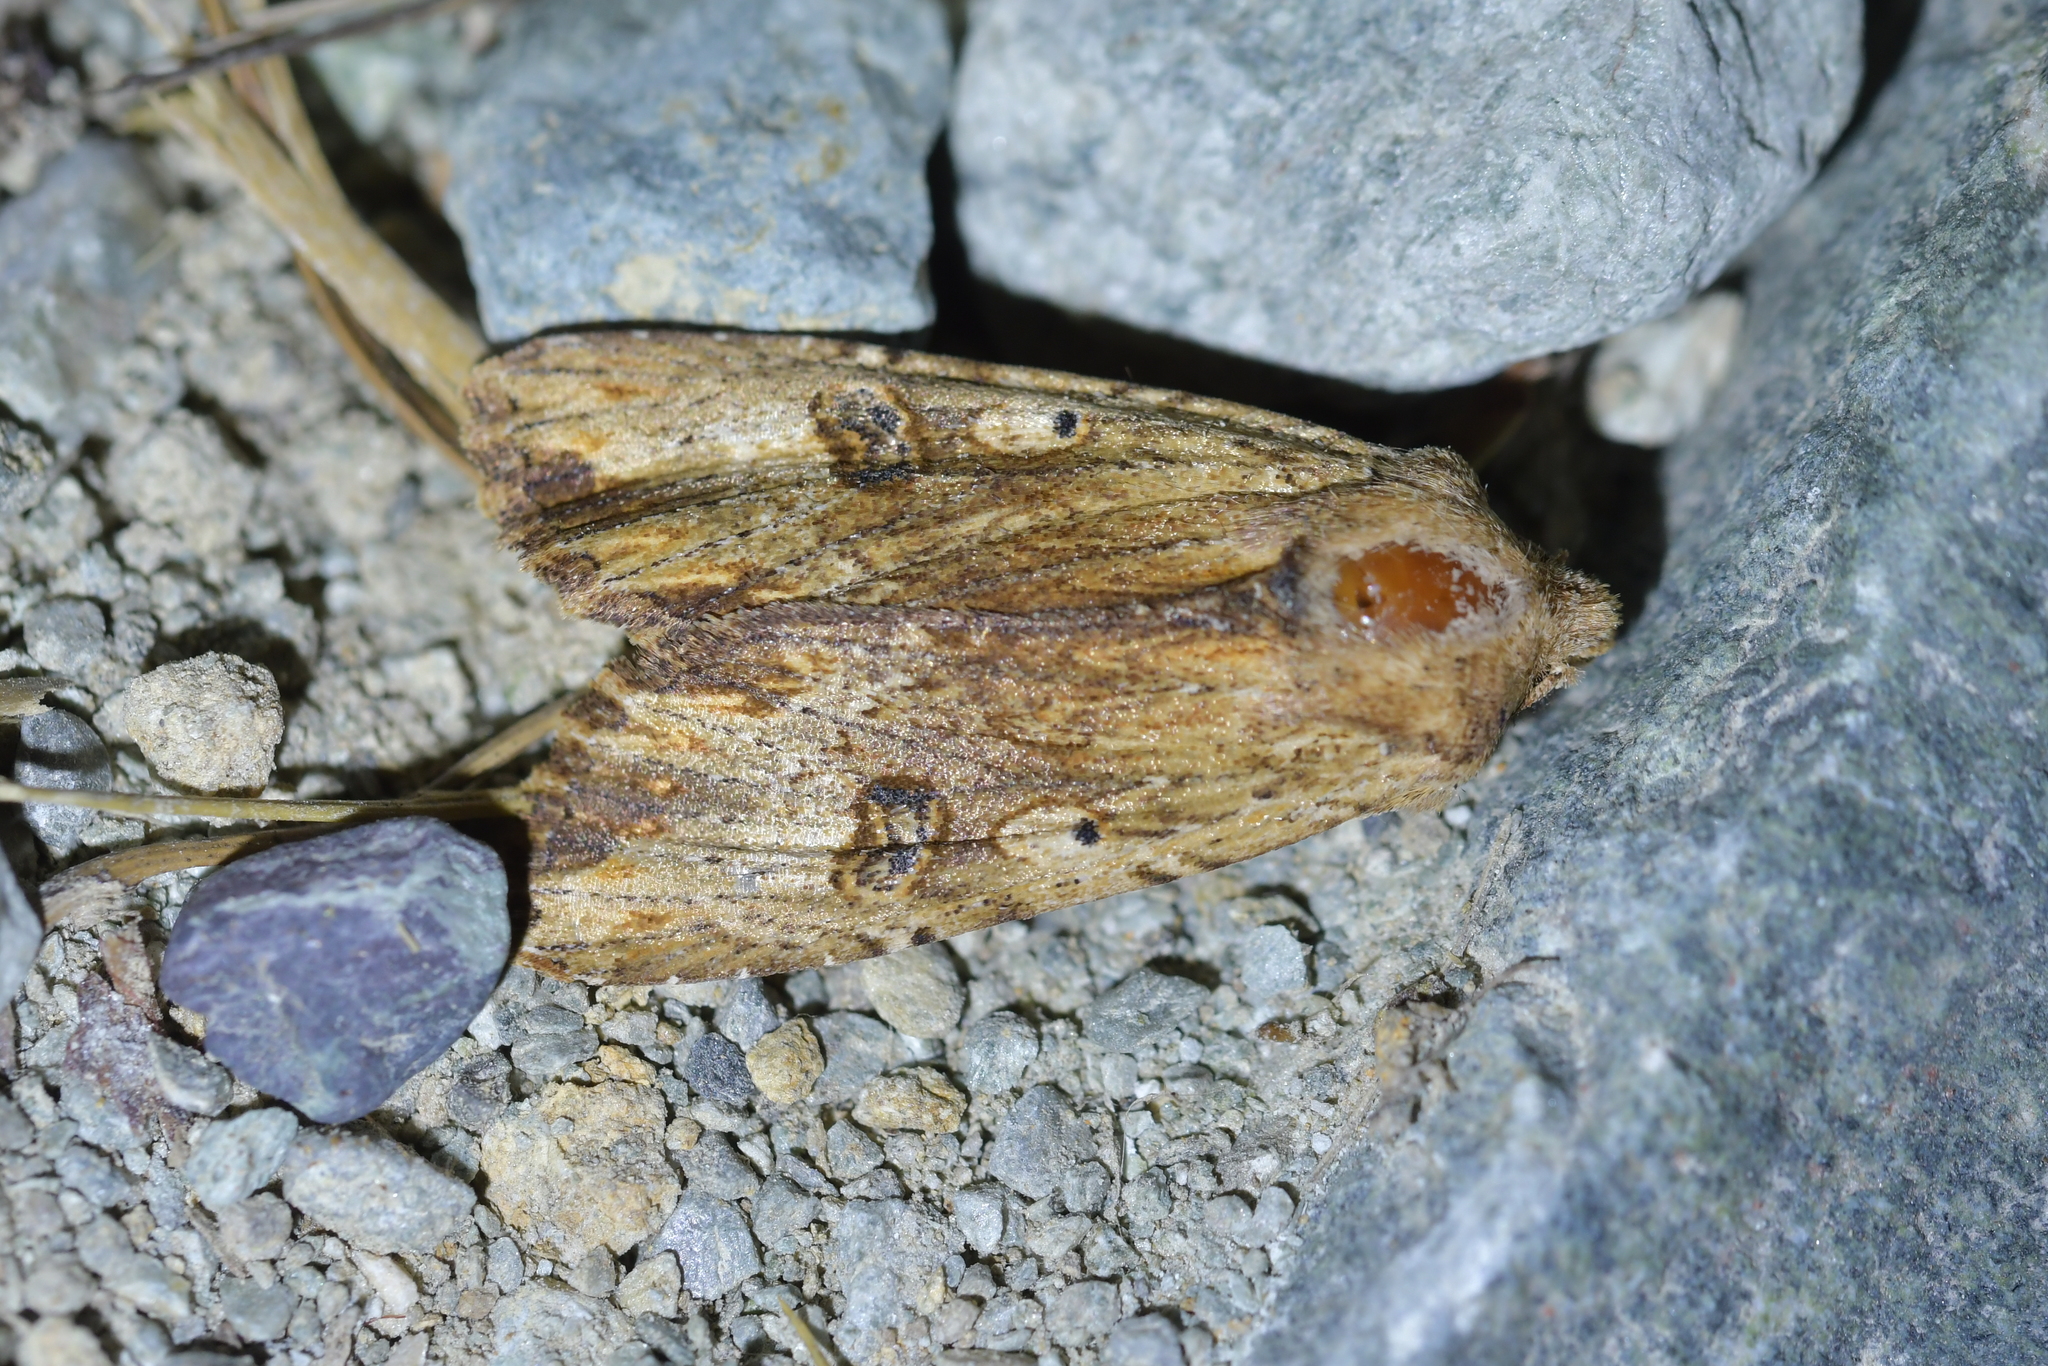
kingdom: Animalia
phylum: Arthropoda
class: Insecta
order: Lepidoptera
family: Noctuidae
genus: Ichneutica
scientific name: Ichneutica
